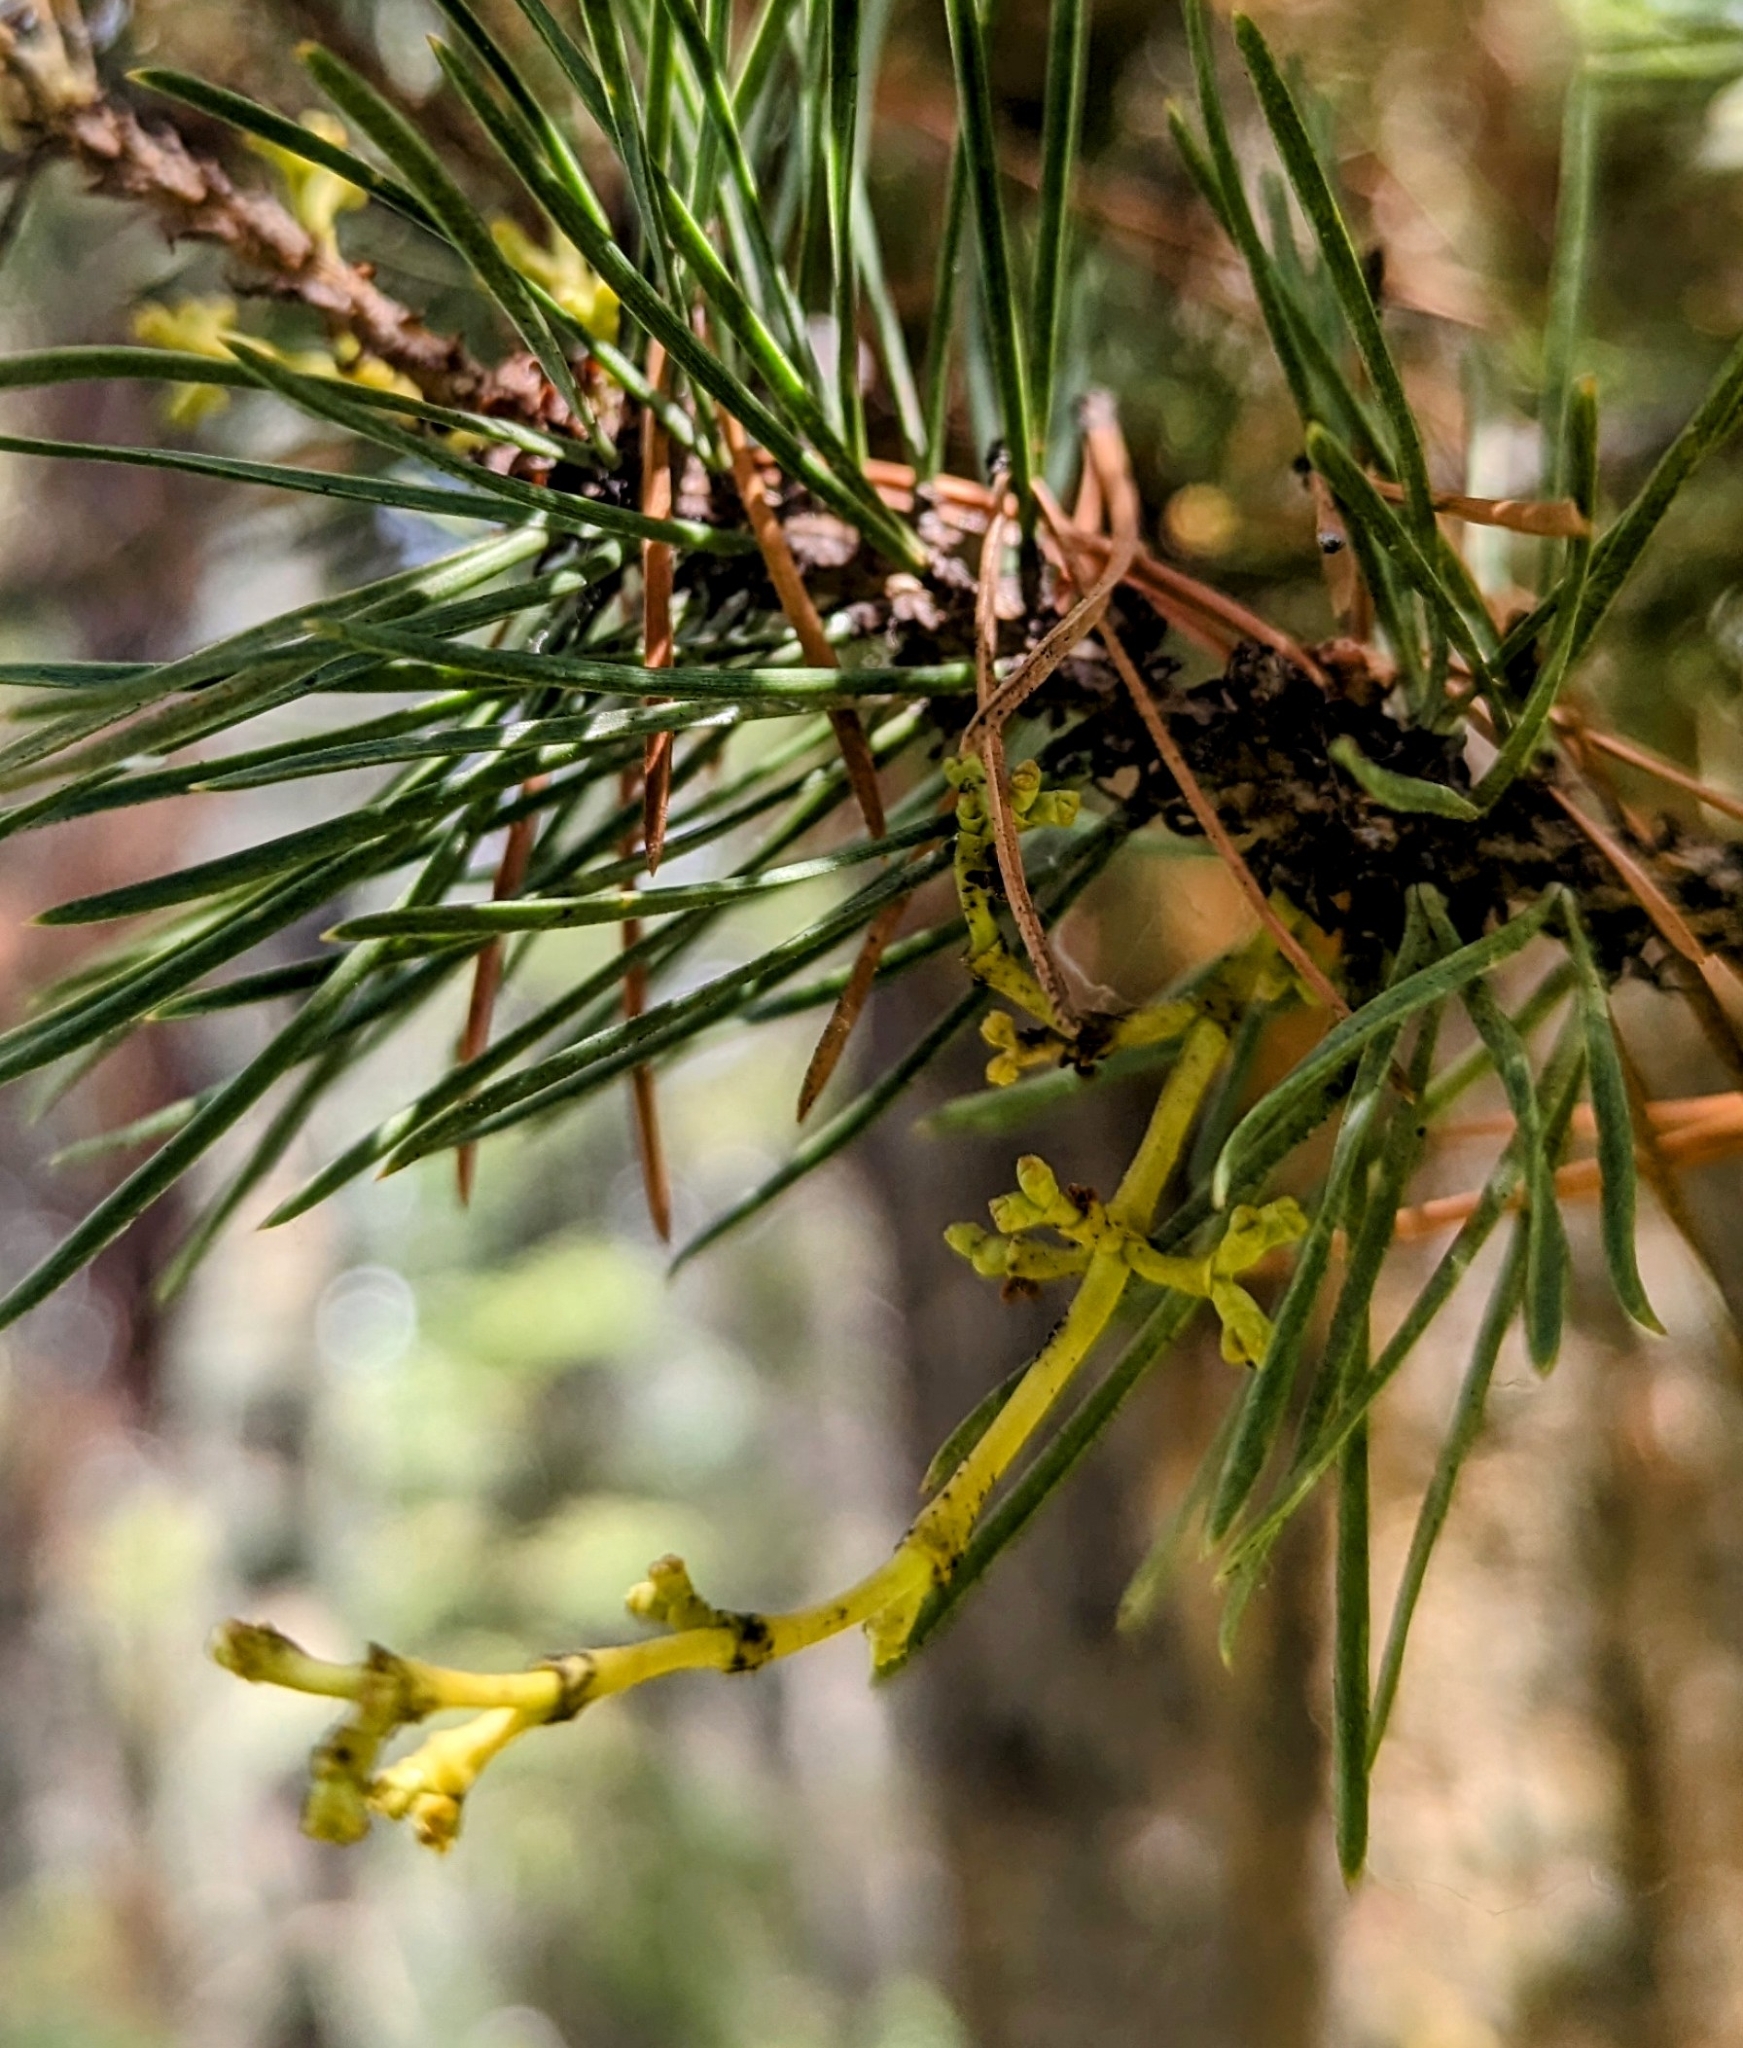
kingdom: Plantae
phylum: Tracheophyta
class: Magnoliopsida
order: Santalales
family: Viscaceae
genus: Arceuthobium
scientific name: Arceuthobium americanum
